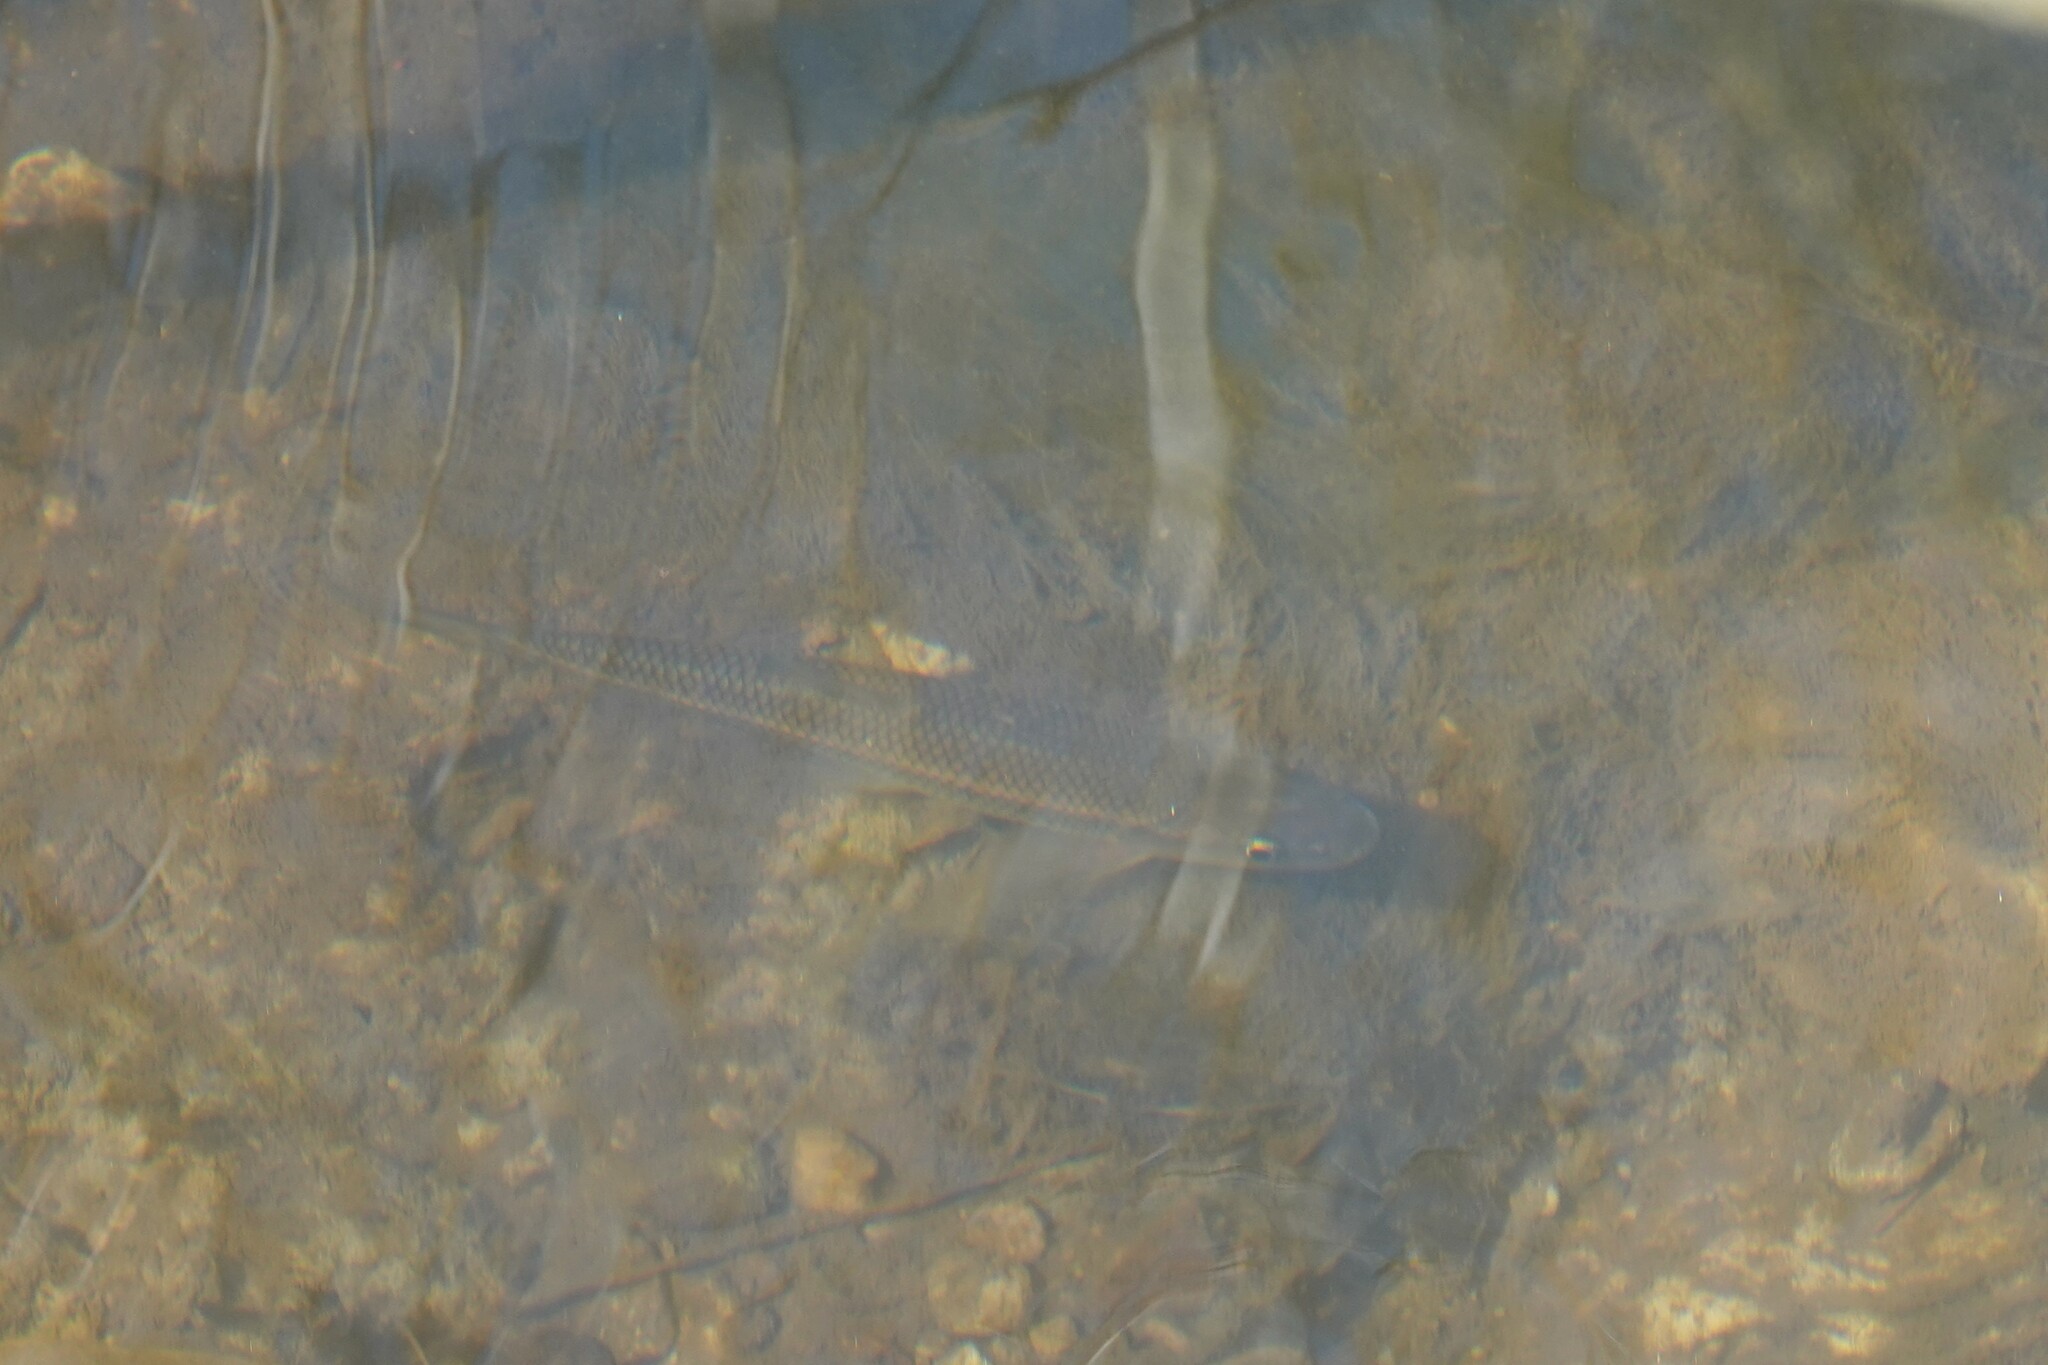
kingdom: Animalia
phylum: Chordata
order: Cypriniformes
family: Cyprinidae
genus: Semotilus
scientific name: Semotilus corporalis
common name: Fallfish
